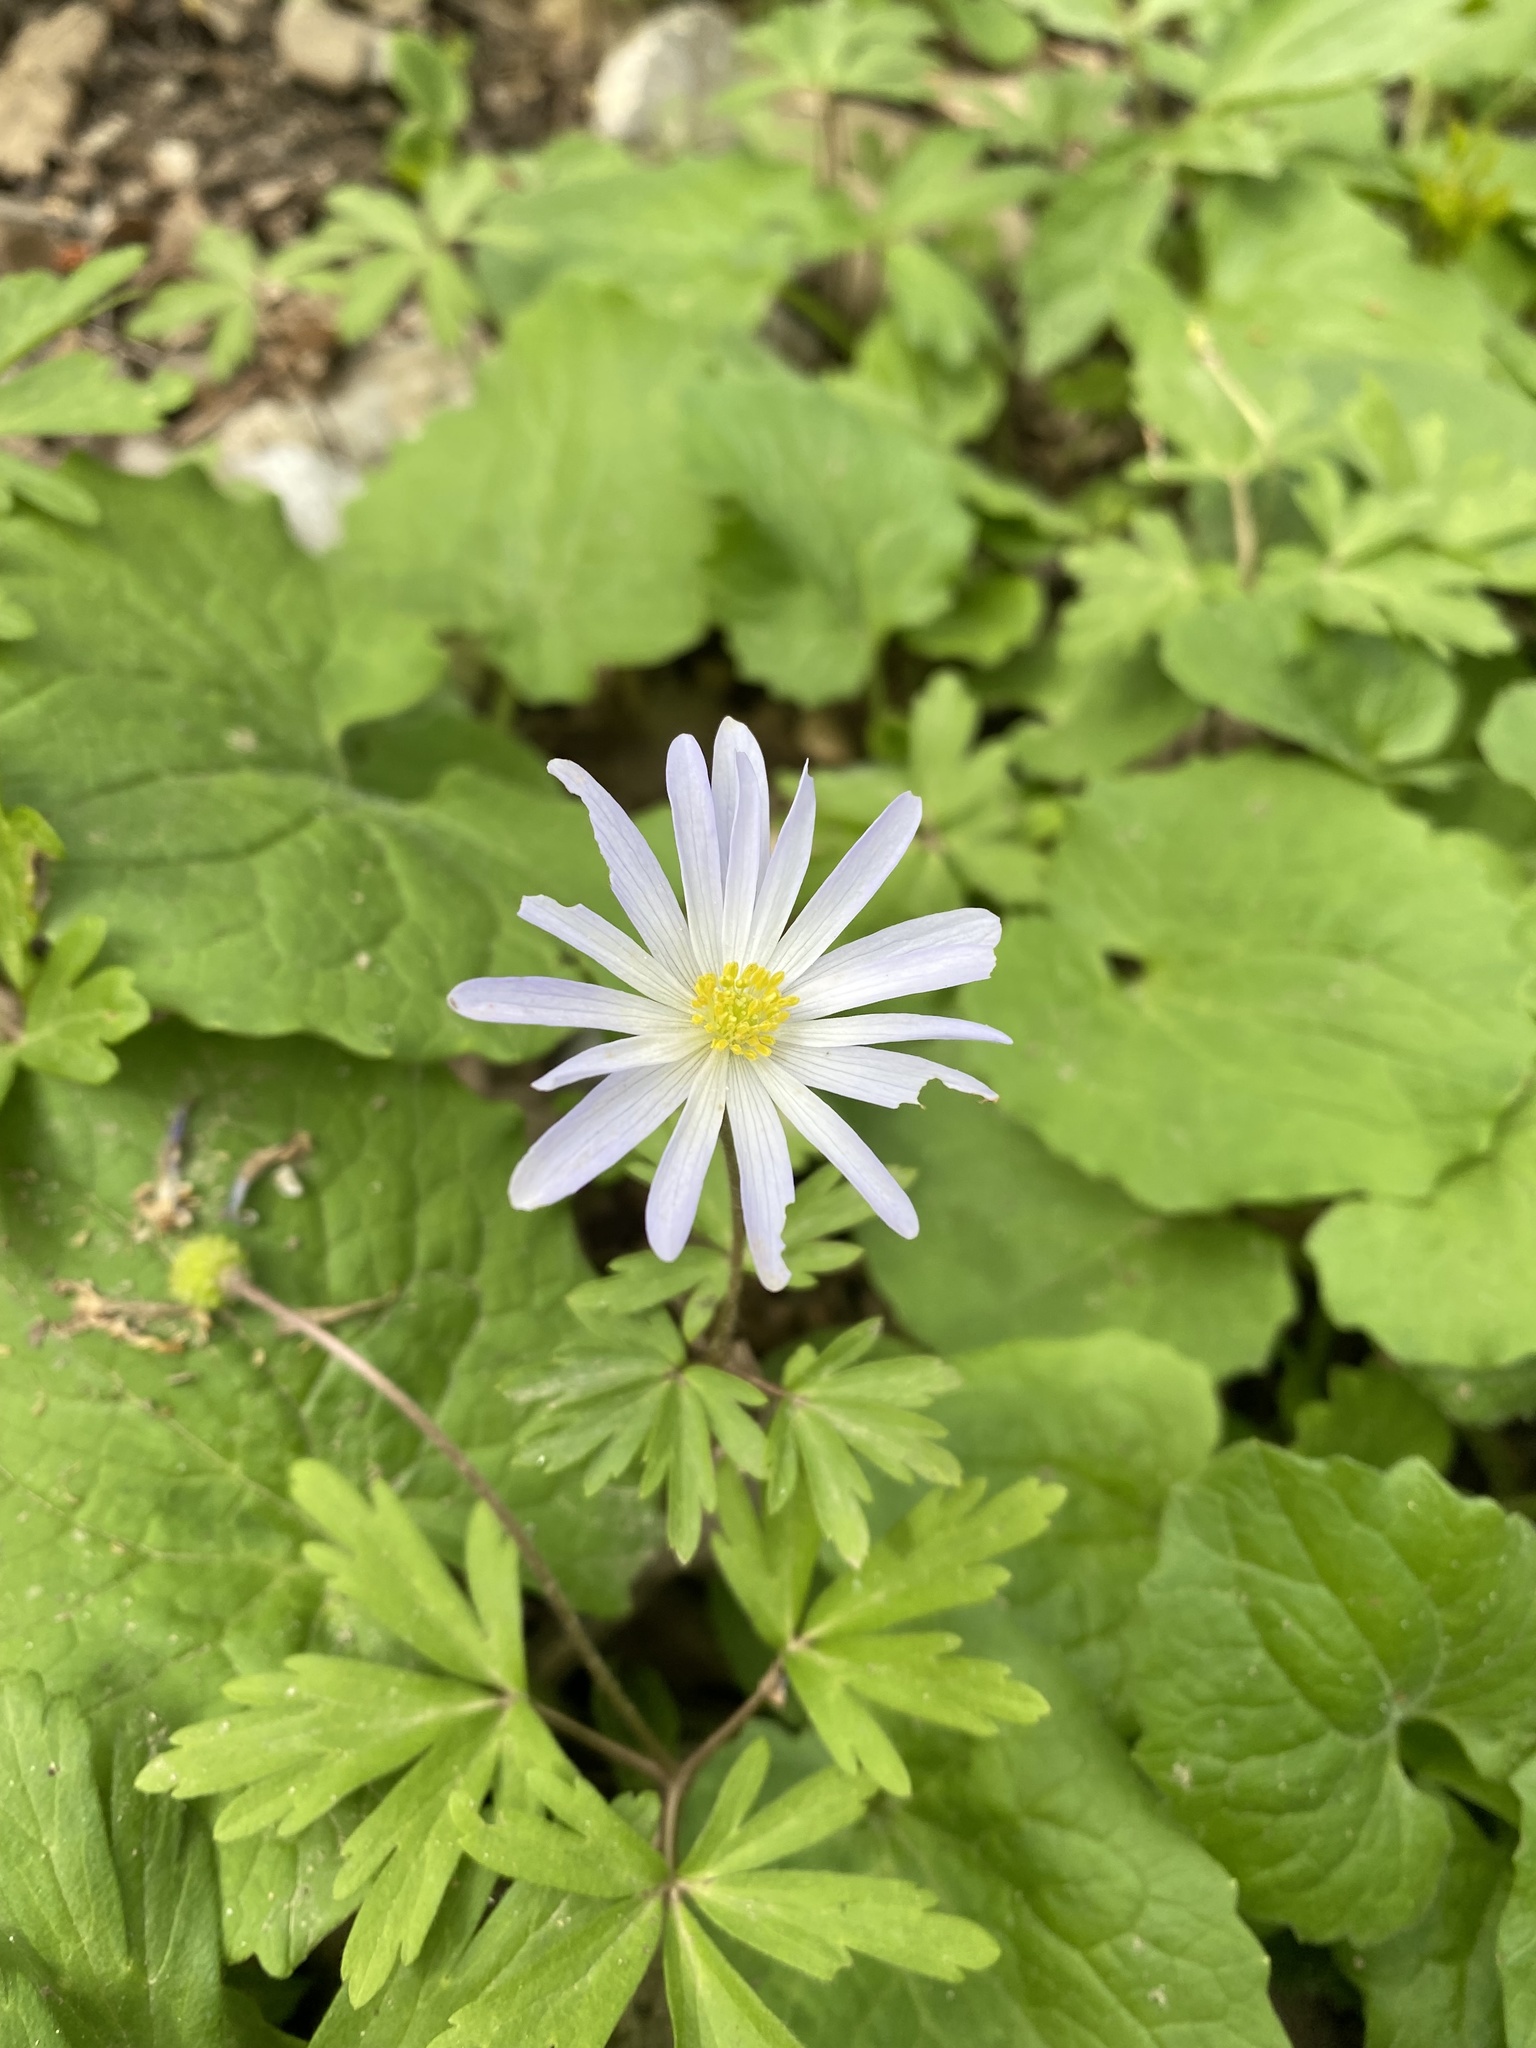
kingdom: Plantae
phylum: Tracheophyta
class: Magnoliopsida
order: Ranunculales
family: Ranunculaceae
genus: Anemone
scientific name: Anemone blanda
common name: Balkan anemone
